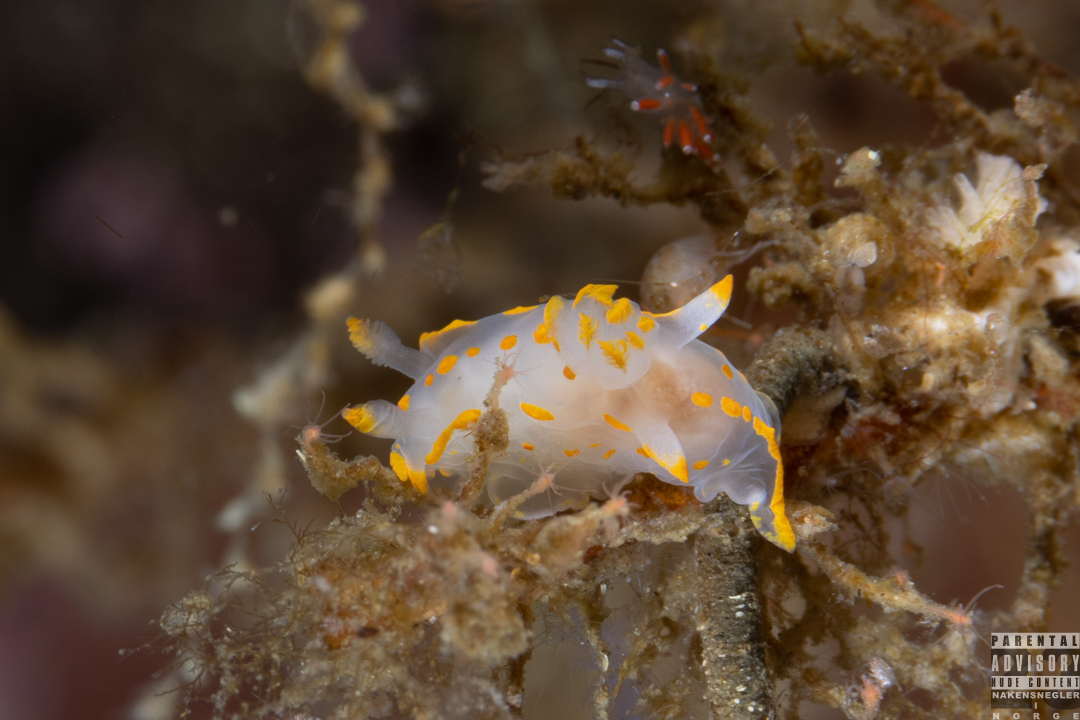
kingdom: Animalia
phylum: Mollusca
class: Gastropoda
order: Nudibranchia
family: Polyceridae
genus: Polycera
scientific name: Polycera quadrilineata
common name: Four-striped polycera
